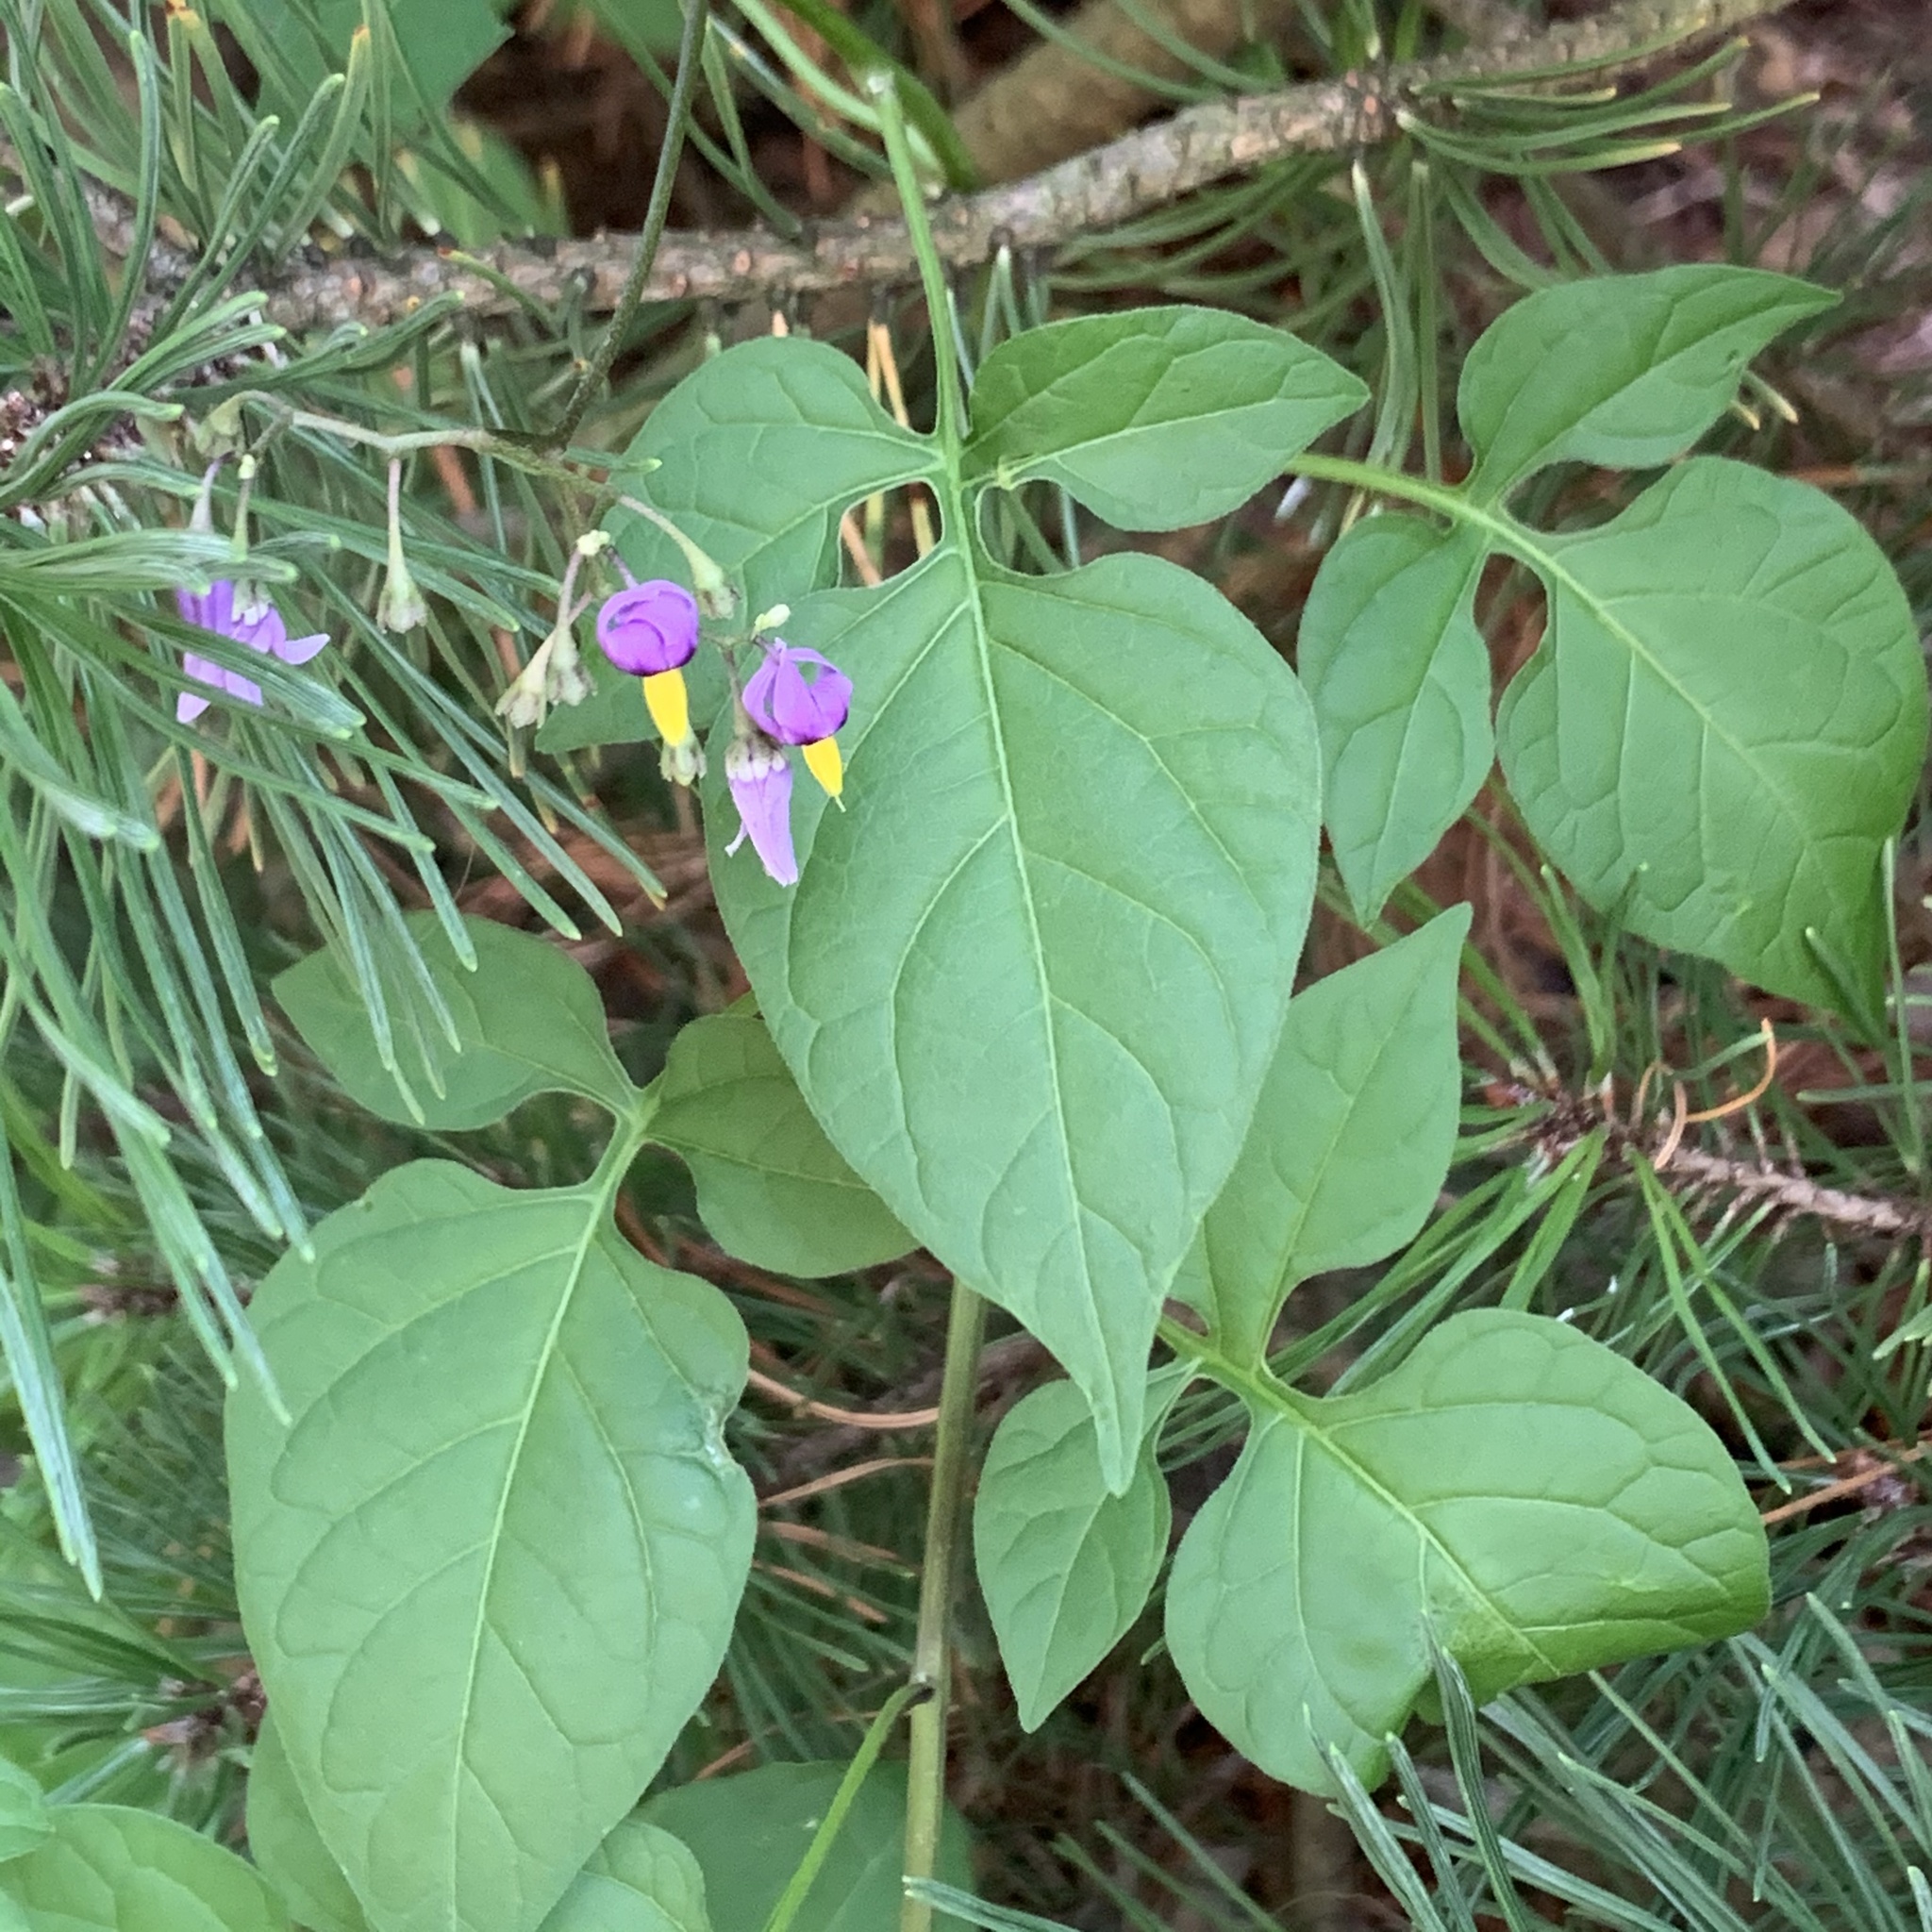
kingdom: Plantae
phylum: Tracheophyta
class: Magnoliopsida
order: Solanales
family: Solanaceae
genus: Solanum
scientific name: Solanum dulcamara
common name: Climbing nightshade
